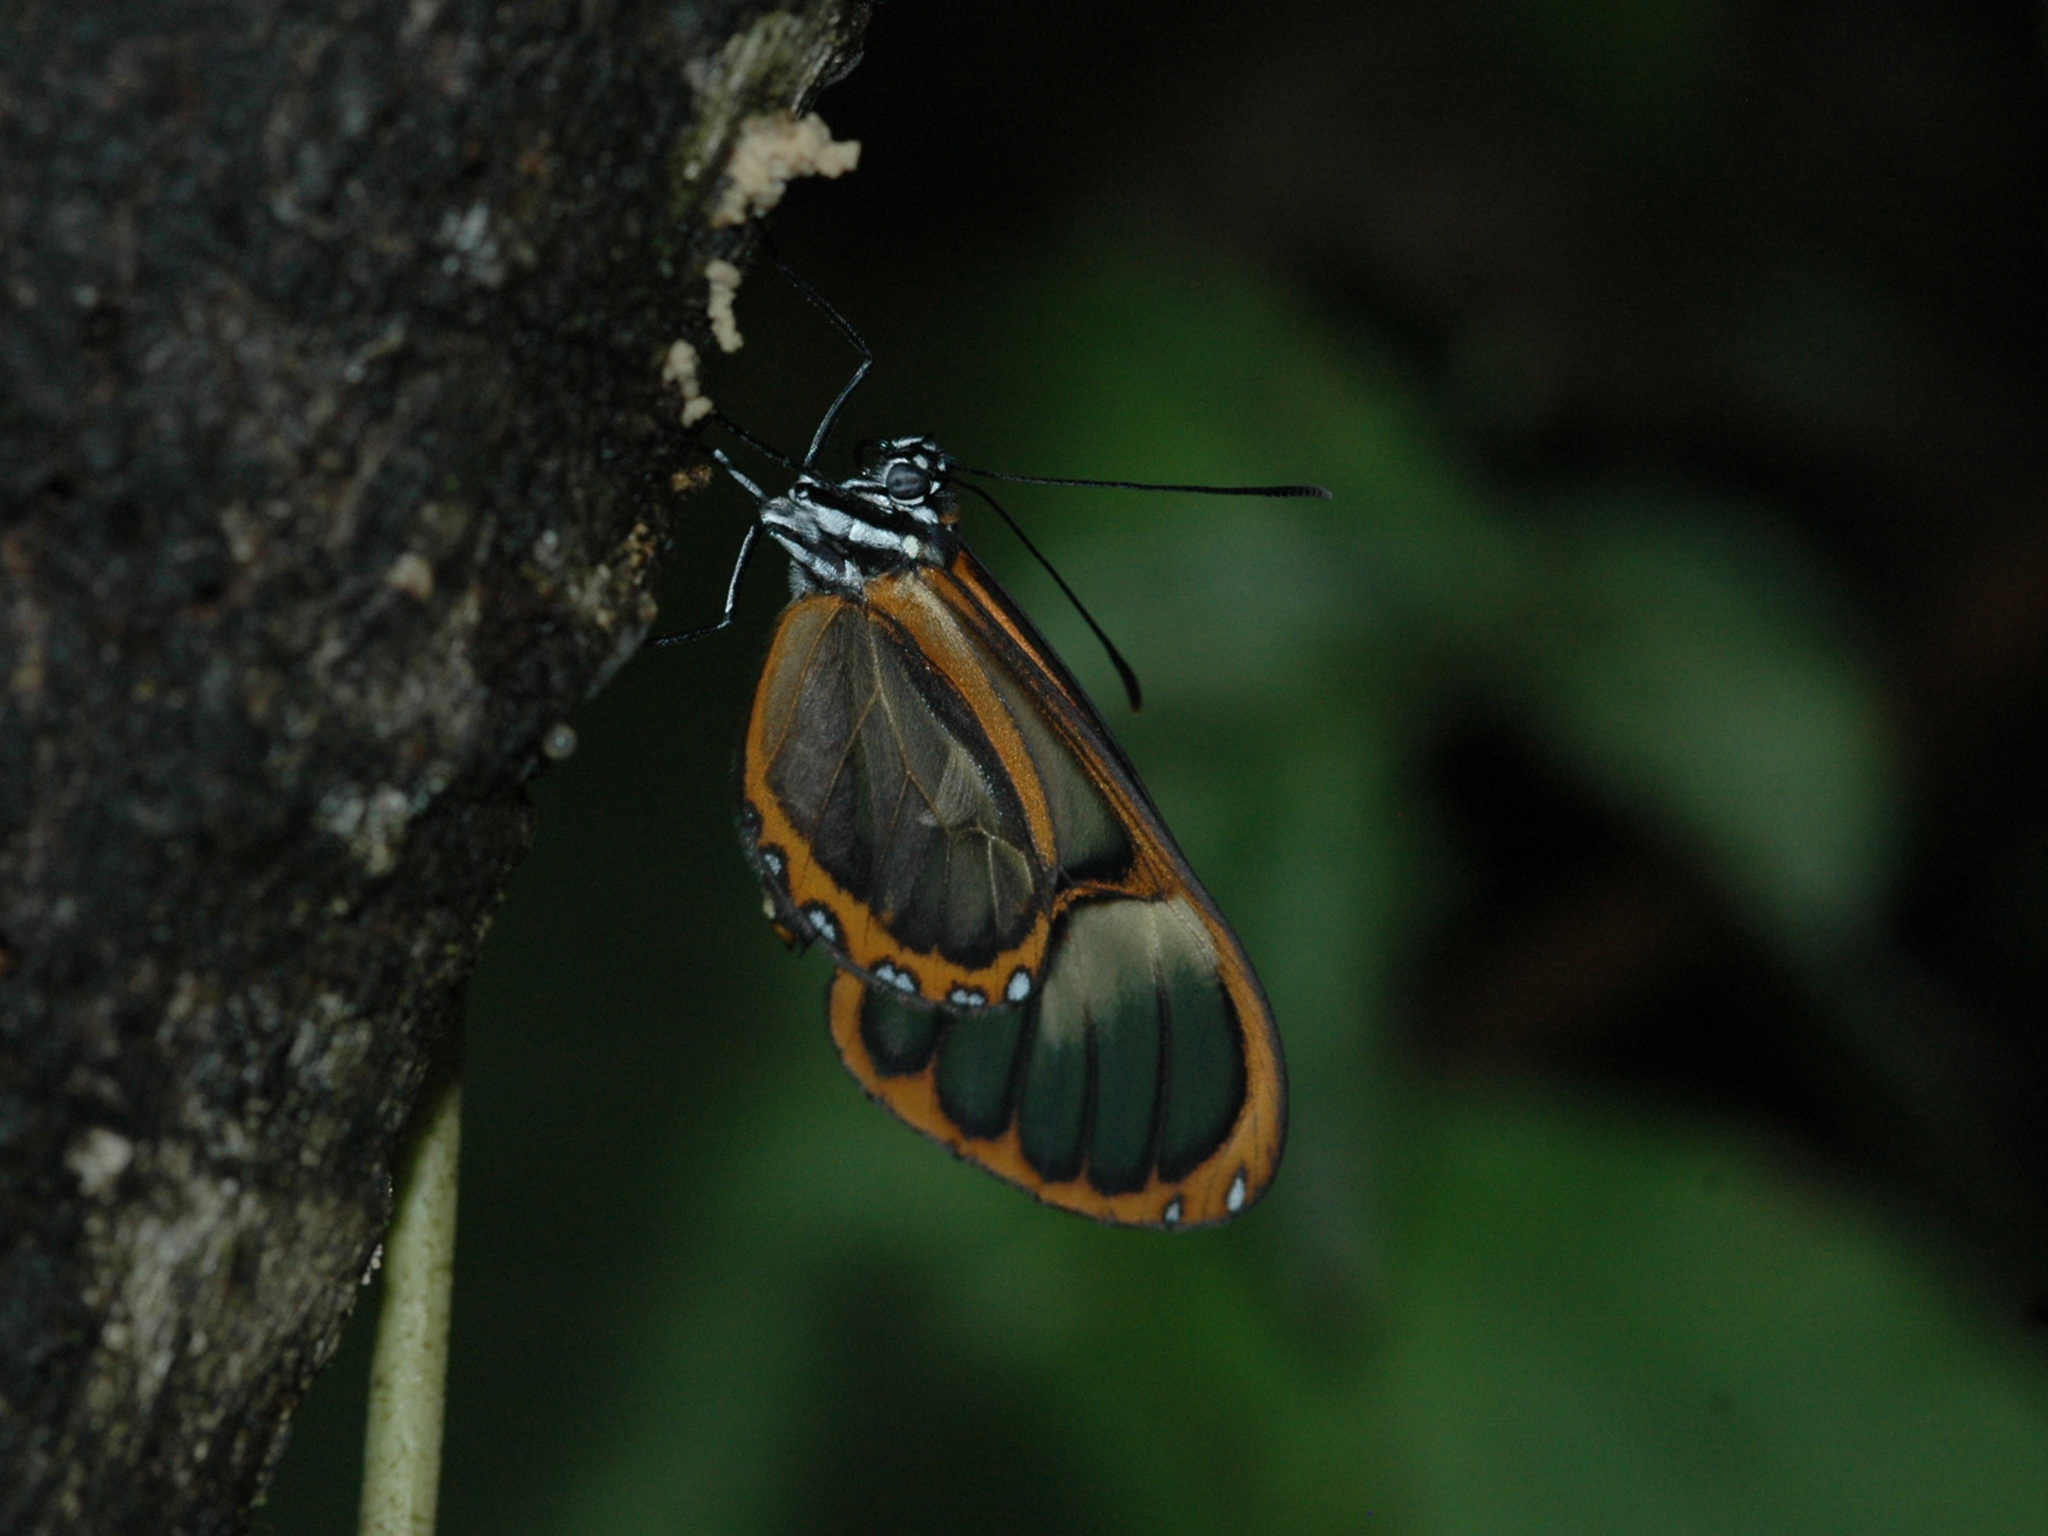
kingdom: Animalia
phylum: Arthropoda
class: Insecta
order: Lepidoptera
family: Nymphalidae
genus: Pagyris
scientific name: Pagyris ulla
